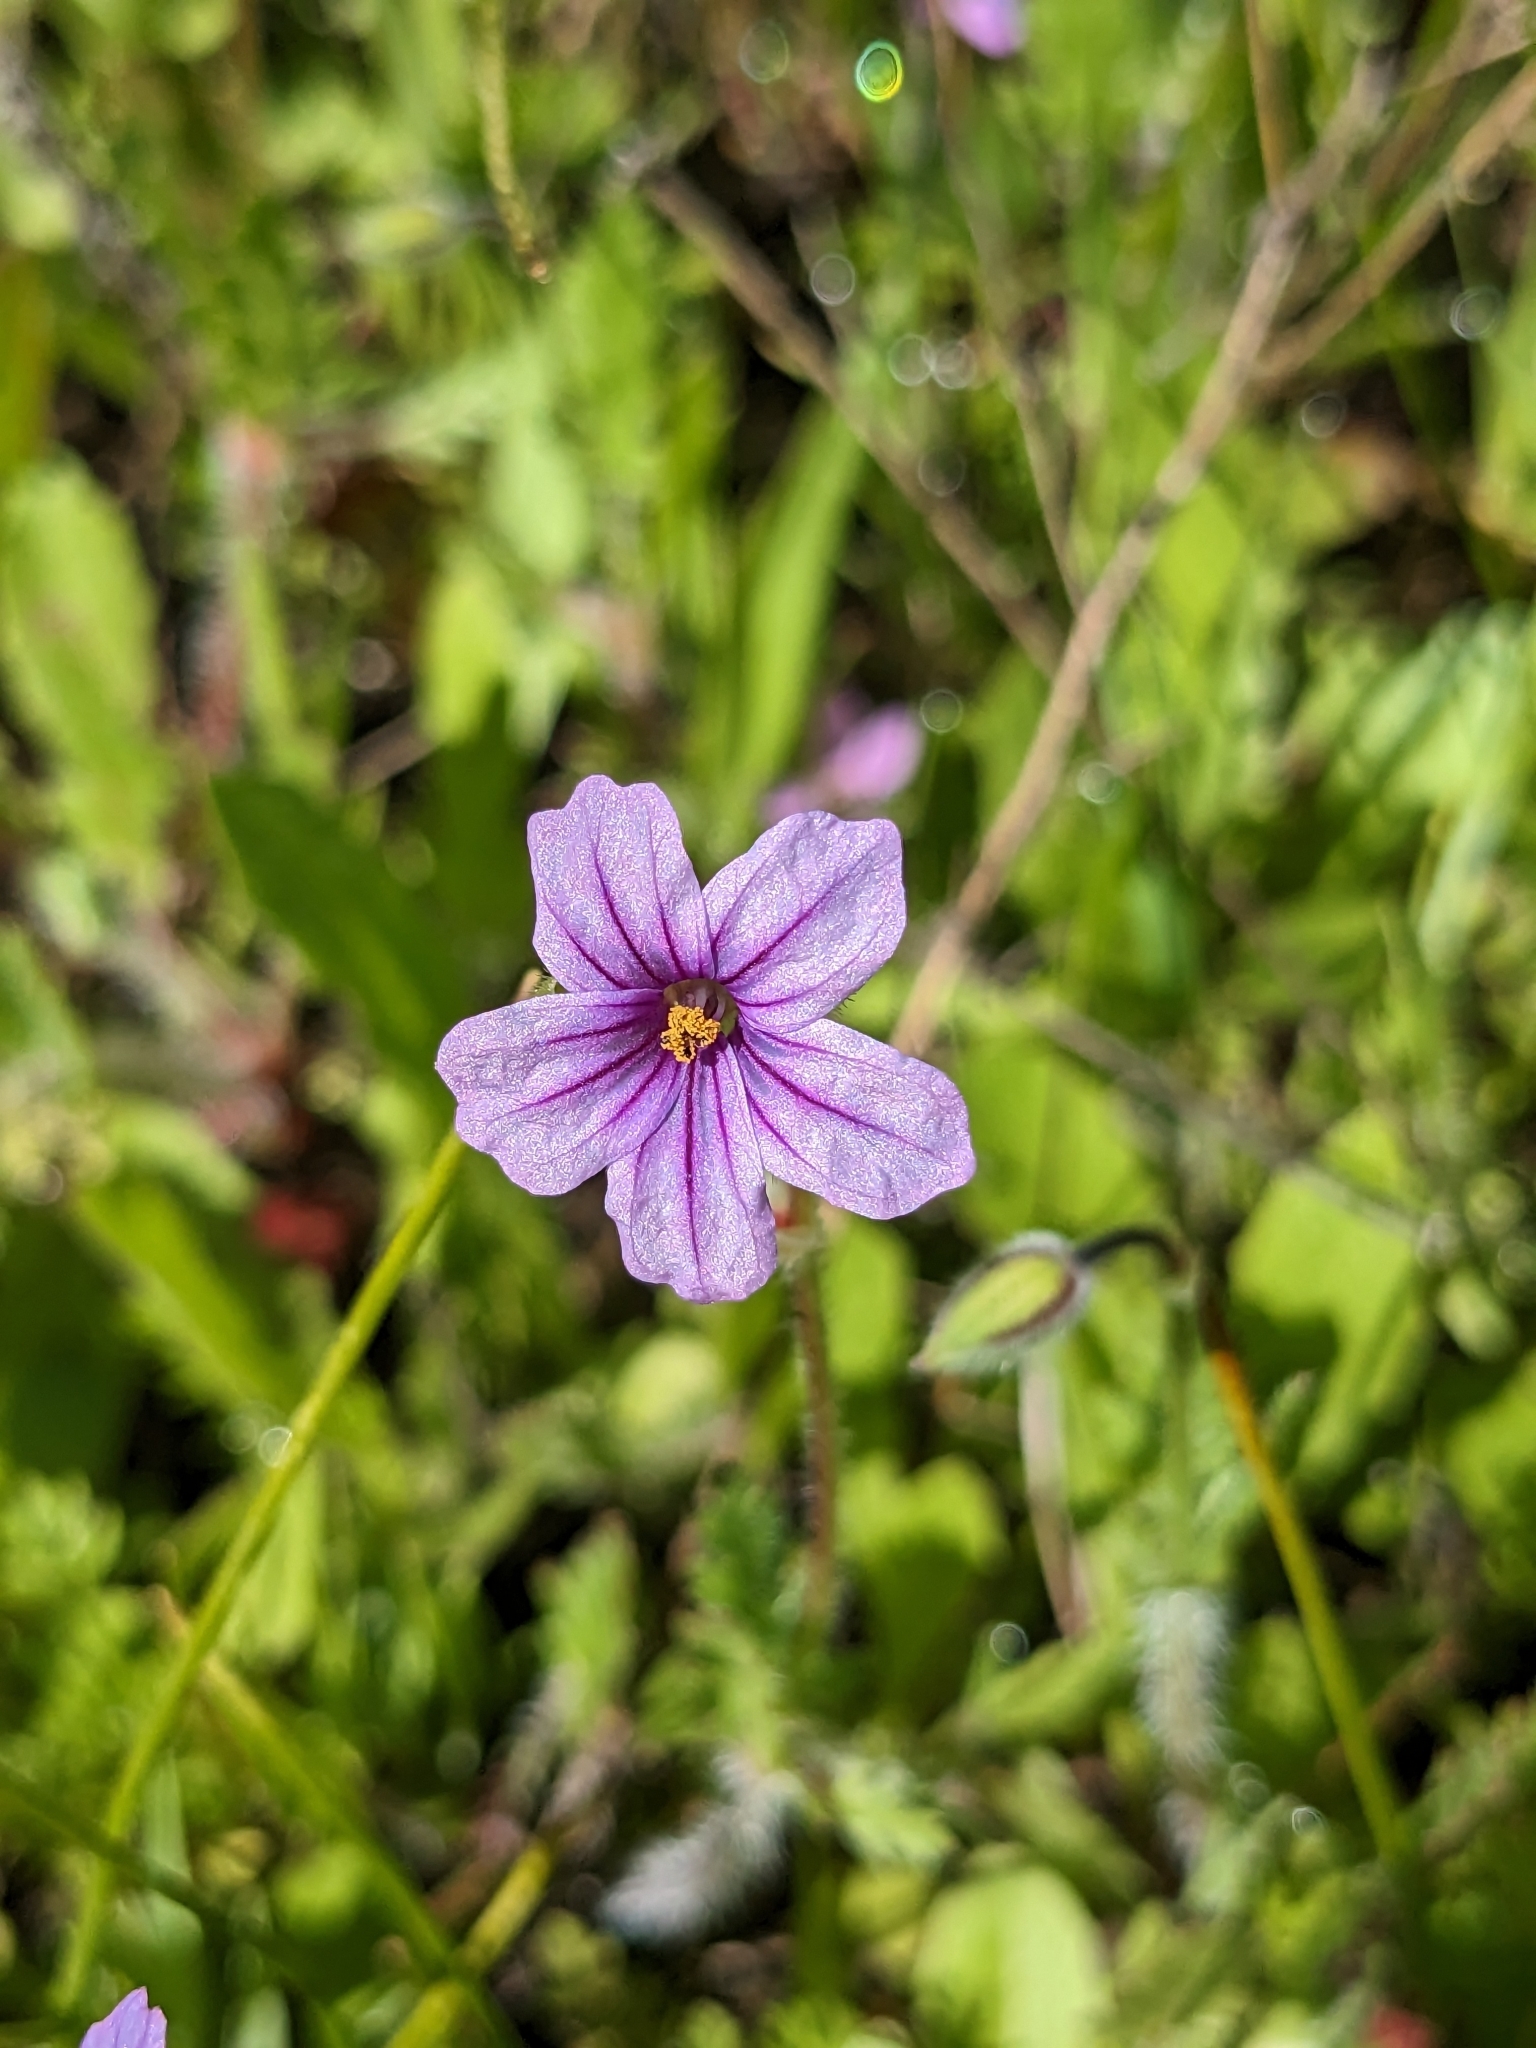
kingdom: Plantae
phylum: Tracheophyta
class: Magnoliopsida
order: Geraniales
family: Geraniaceae
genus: Erodium
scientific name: Erodium botrys
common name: Mediterranean stork's-bill
